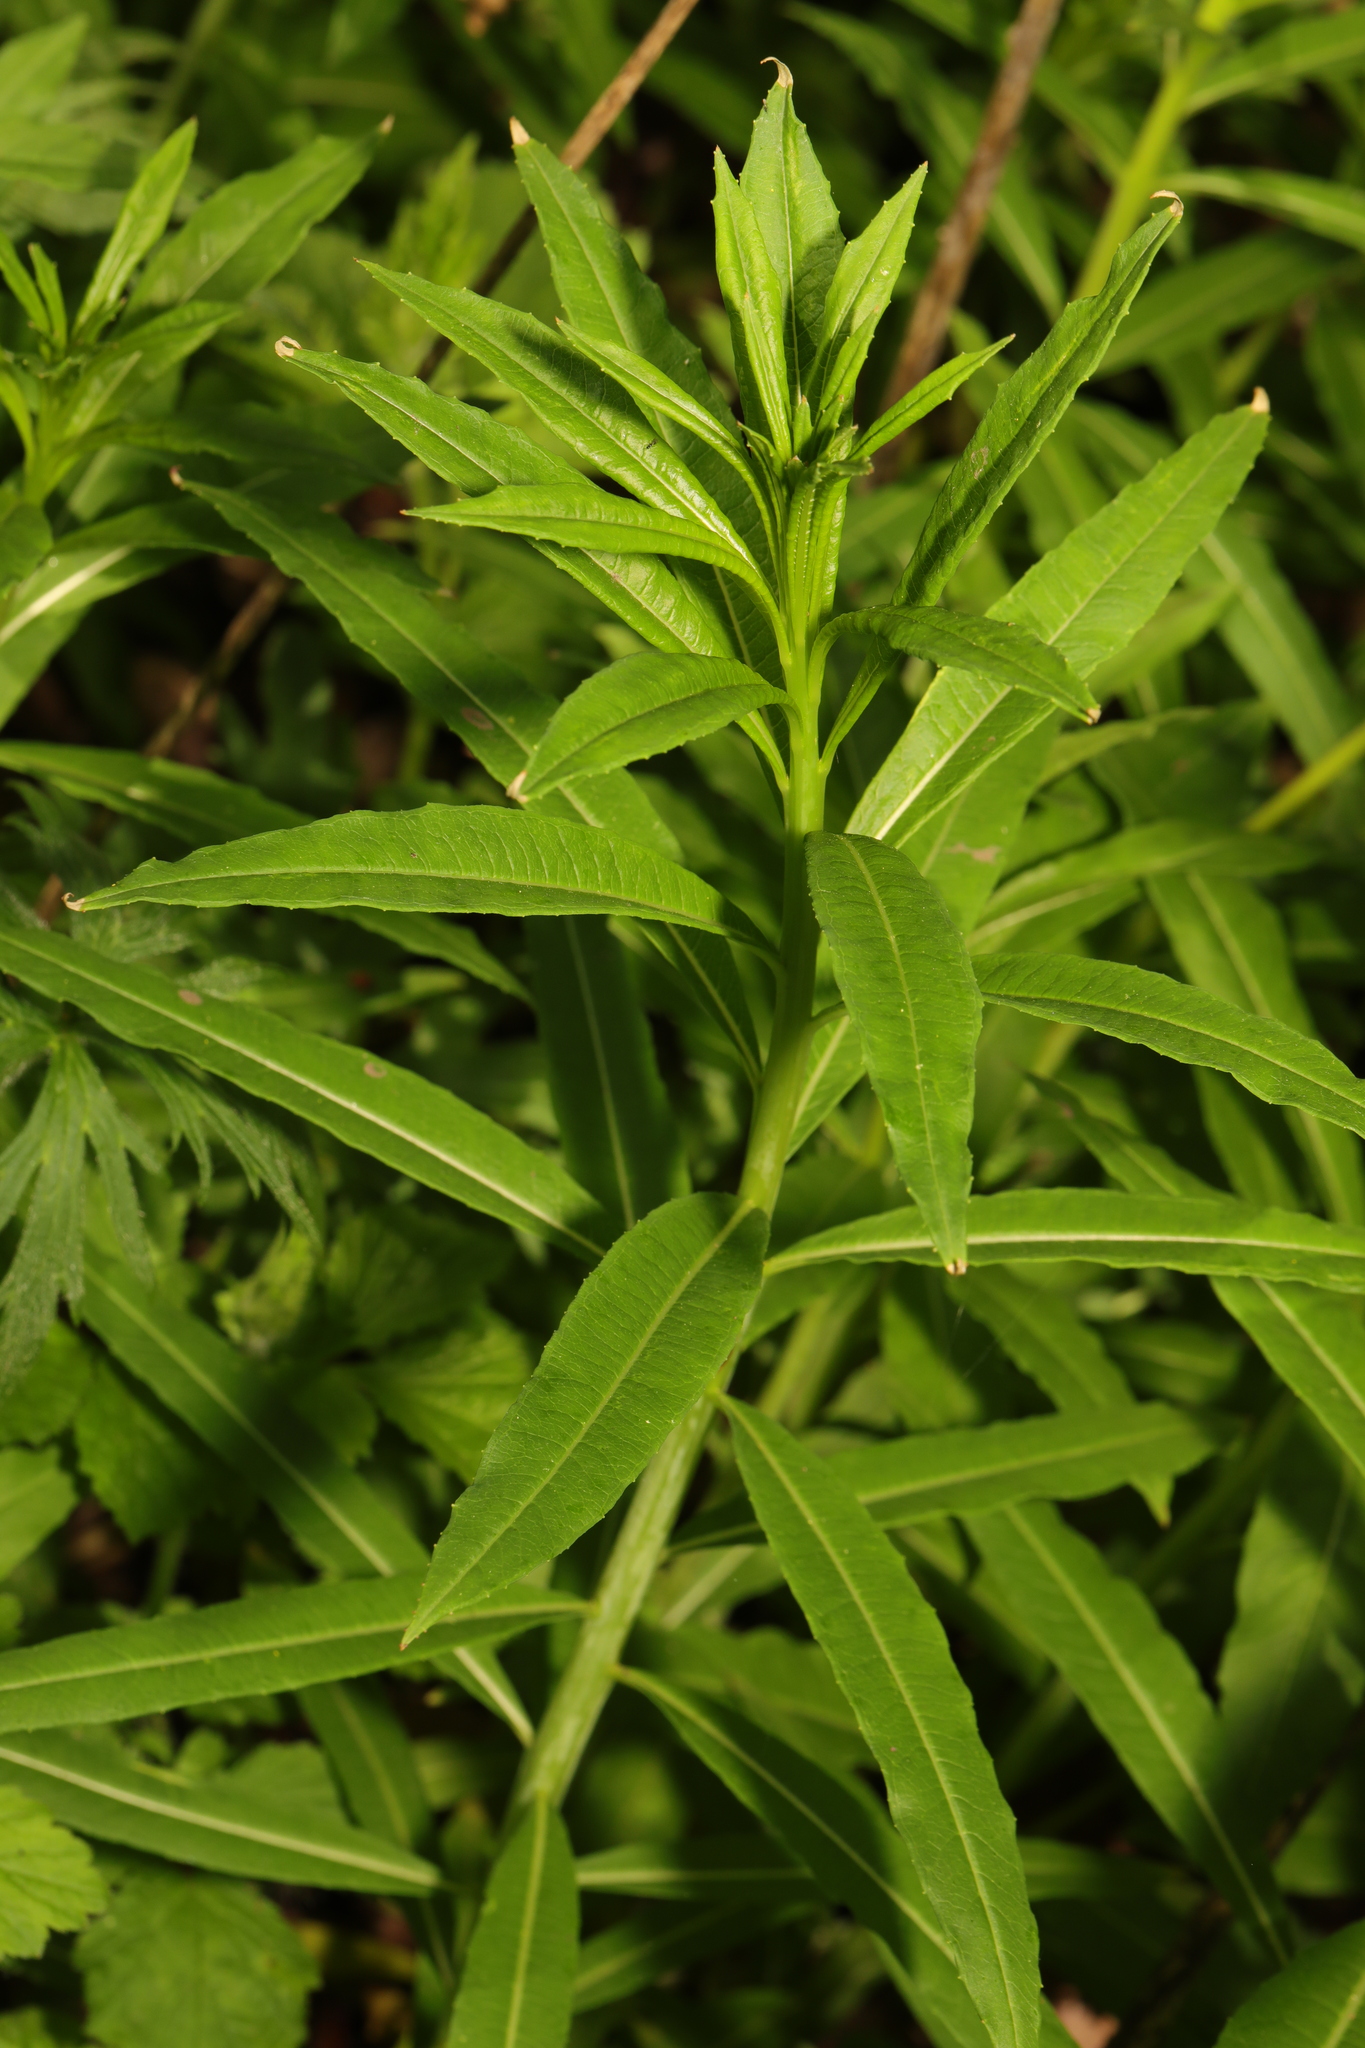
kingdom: Plantae
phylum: Tracheophyta
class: Magnoliopsida
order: Myrtales
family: Onagraceae
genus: Chamaenerion
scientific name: Chamaenerion angustifolium
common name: Fireweed
